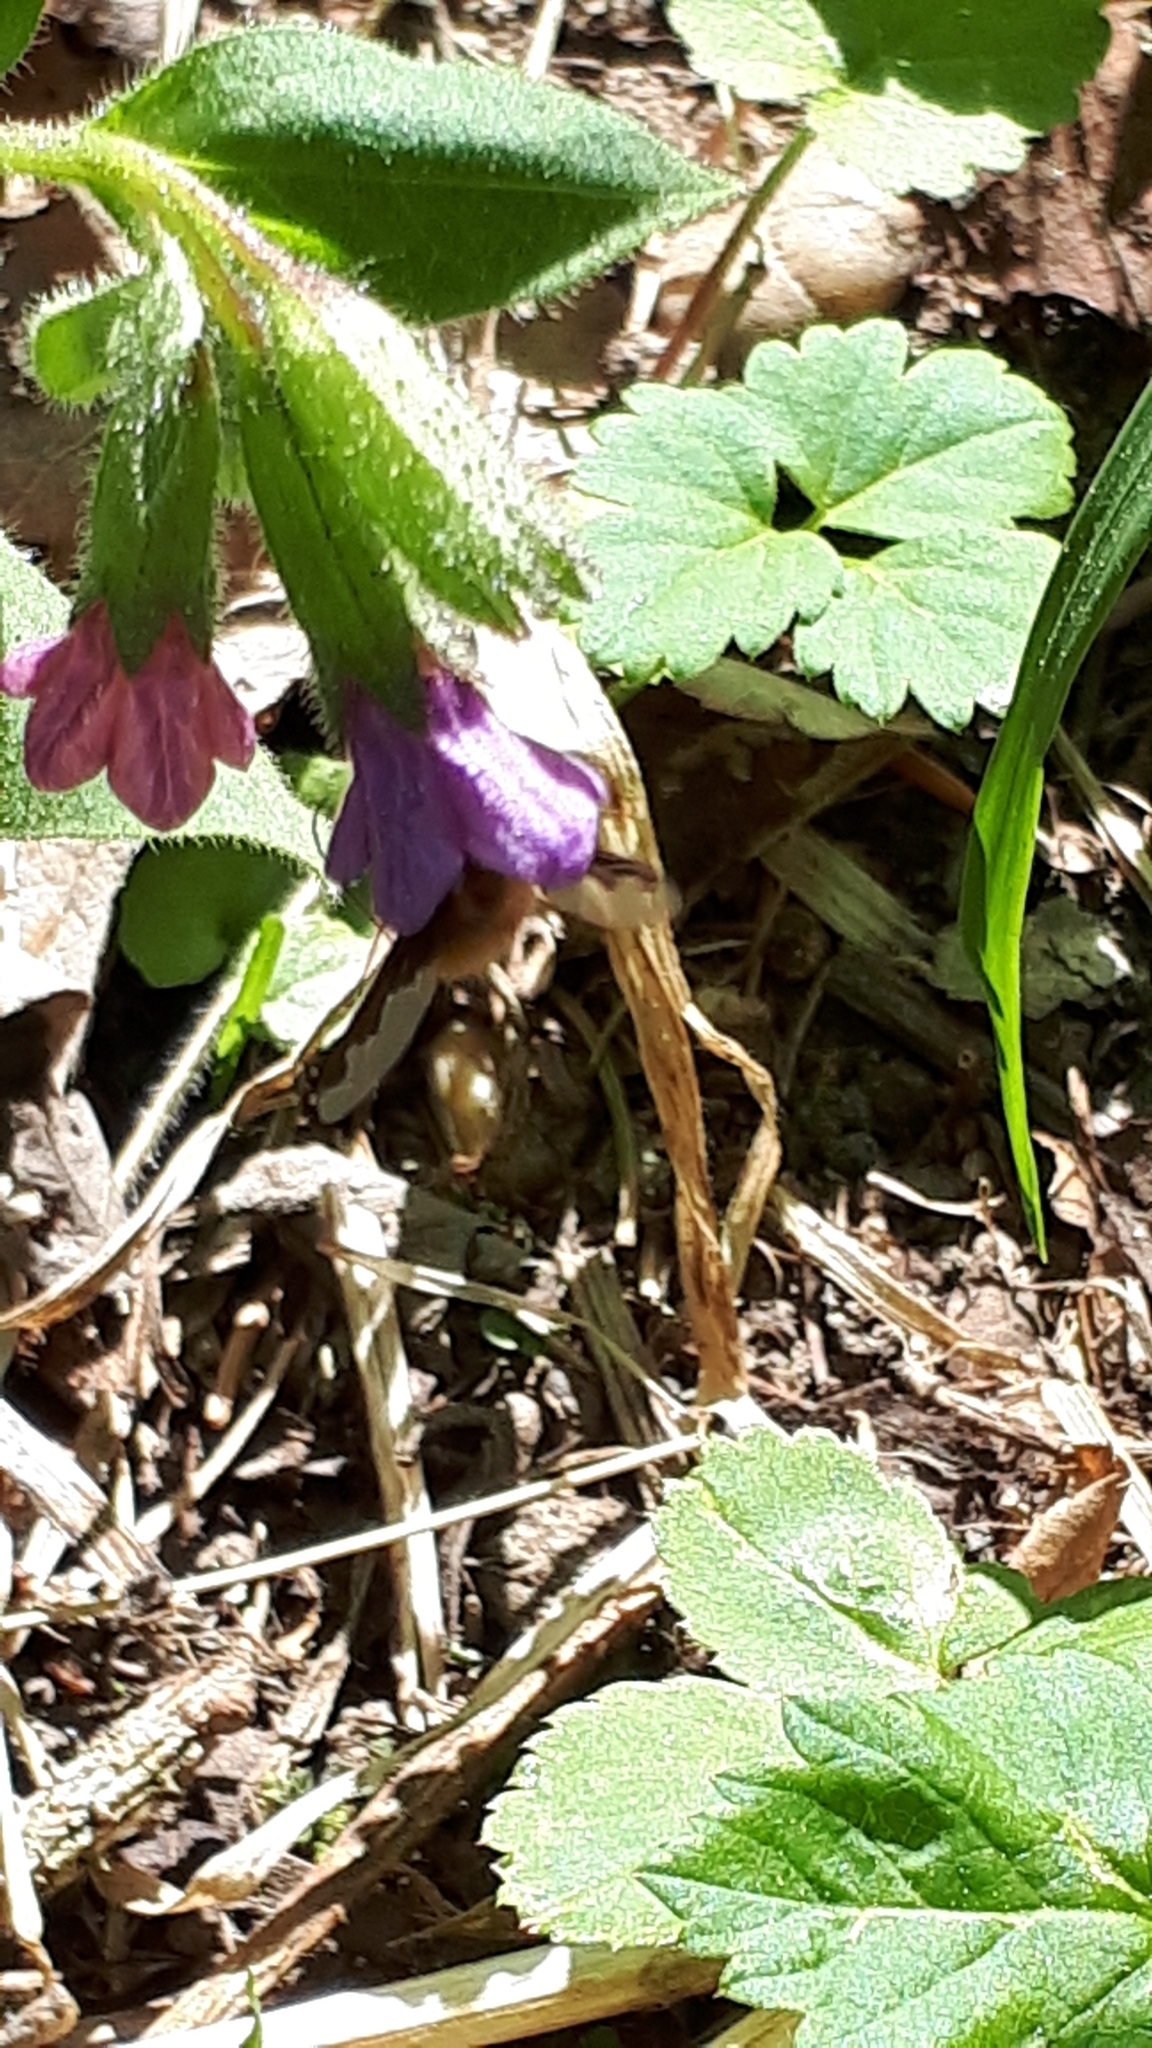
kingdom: Animalia
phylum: Arthropoda
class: Insecta
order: Diptera
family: Bombyliidae
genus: Bombylius
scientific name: Bombylius major
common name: Bee fly
